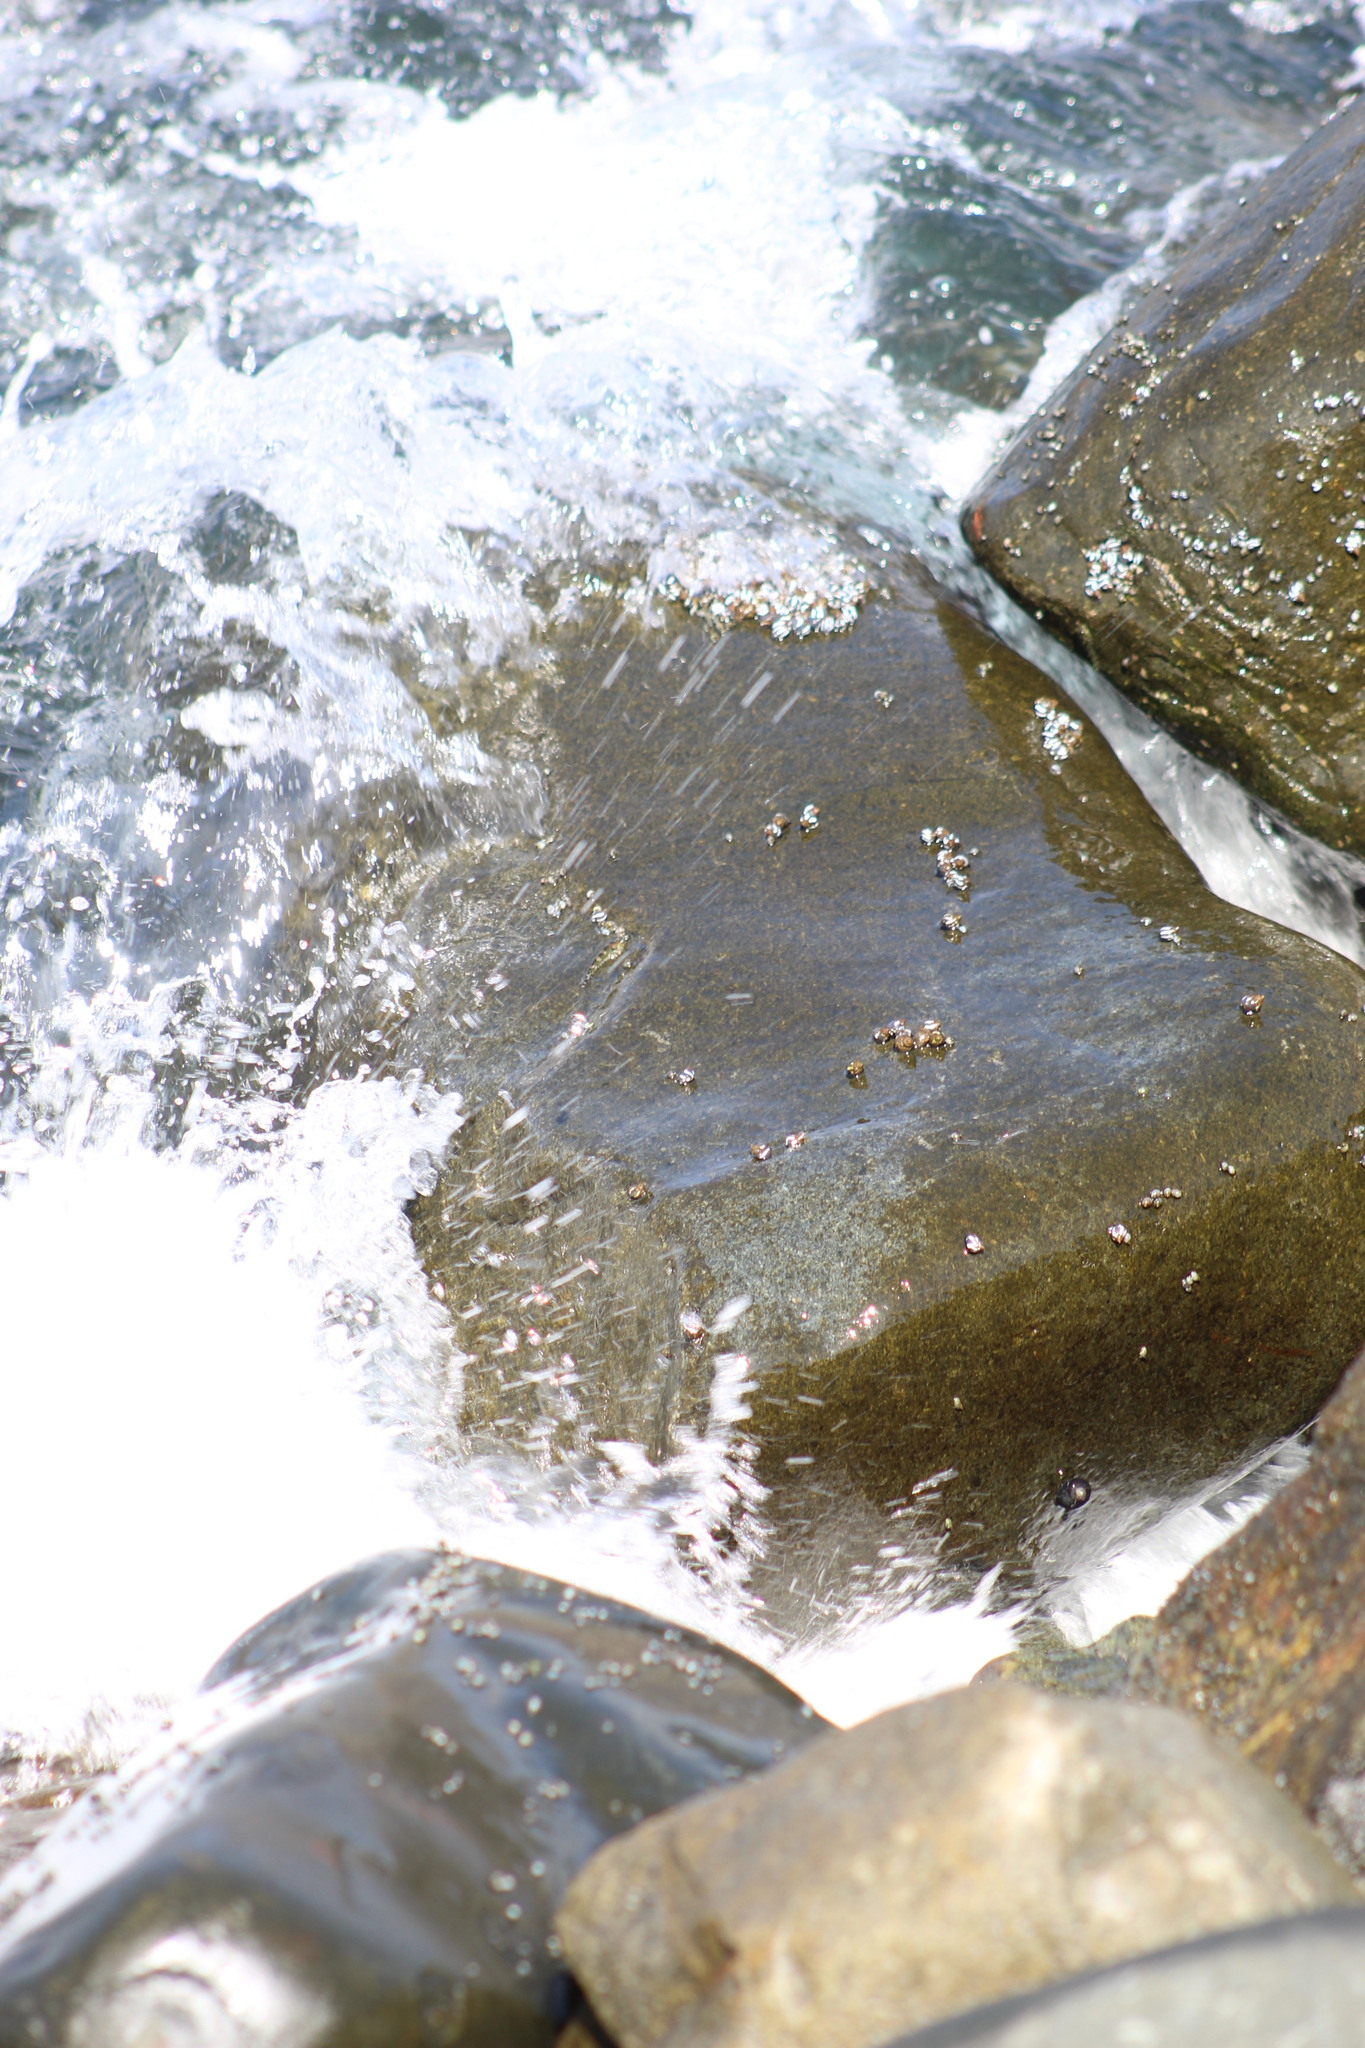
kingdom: Animalia
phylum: Mollusca
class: Gastropoda
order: Littorinimorpha
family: Littorinidae
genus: Echinolittorina
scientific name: Echinolittorina peruviana
